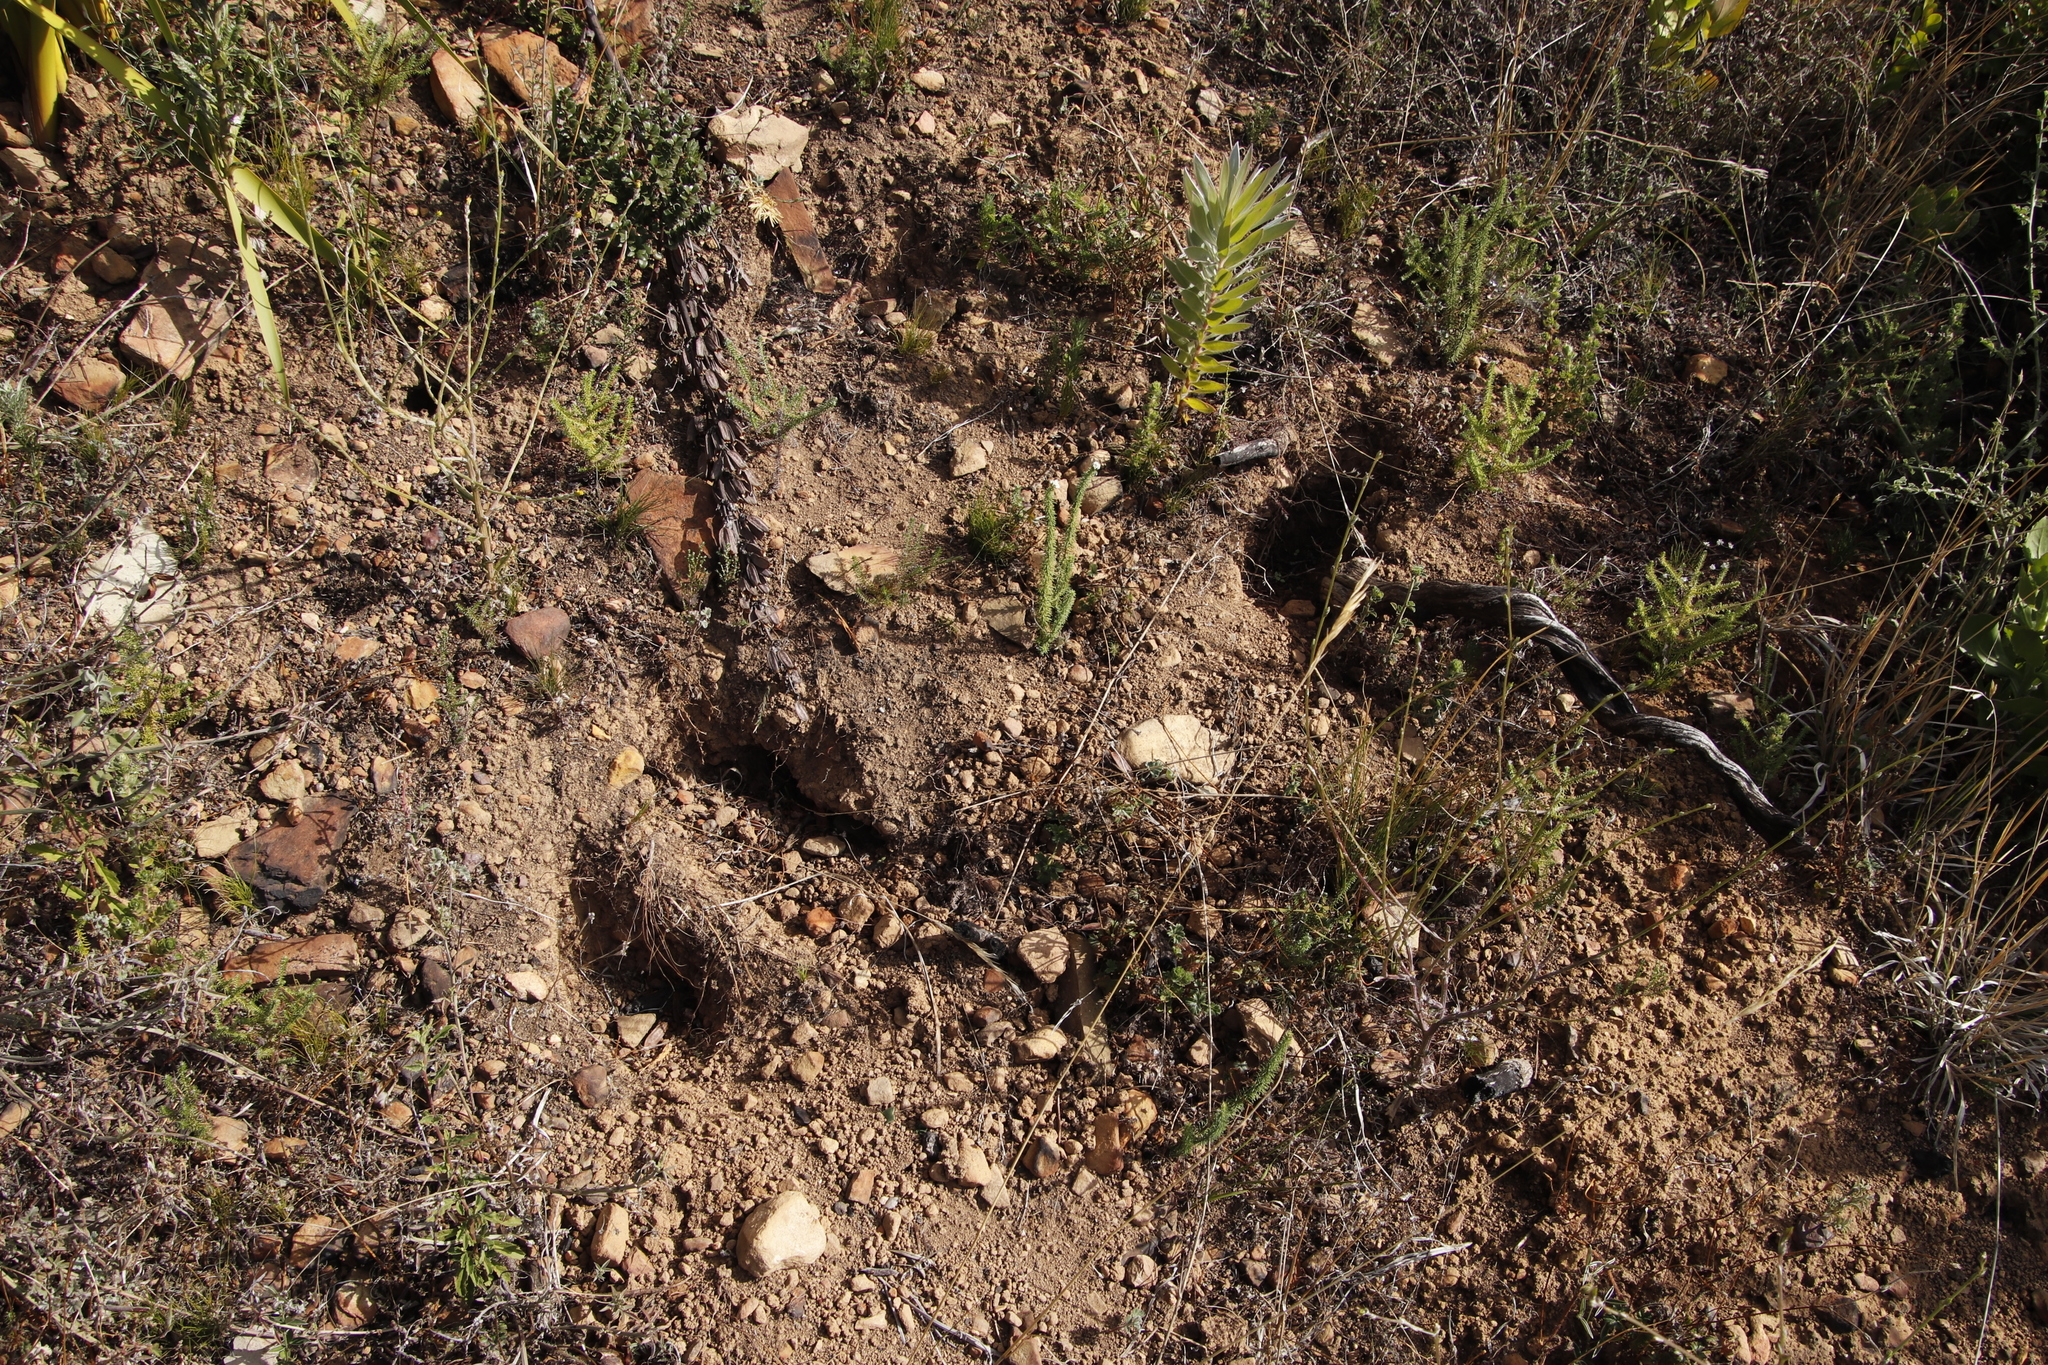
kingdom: Animalia
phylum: Chordata
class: Mammalia
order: Rodentia
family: Hystricidae
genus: Hystrix
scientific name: Hystrix africaeaustralis
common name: Cape porcupine
